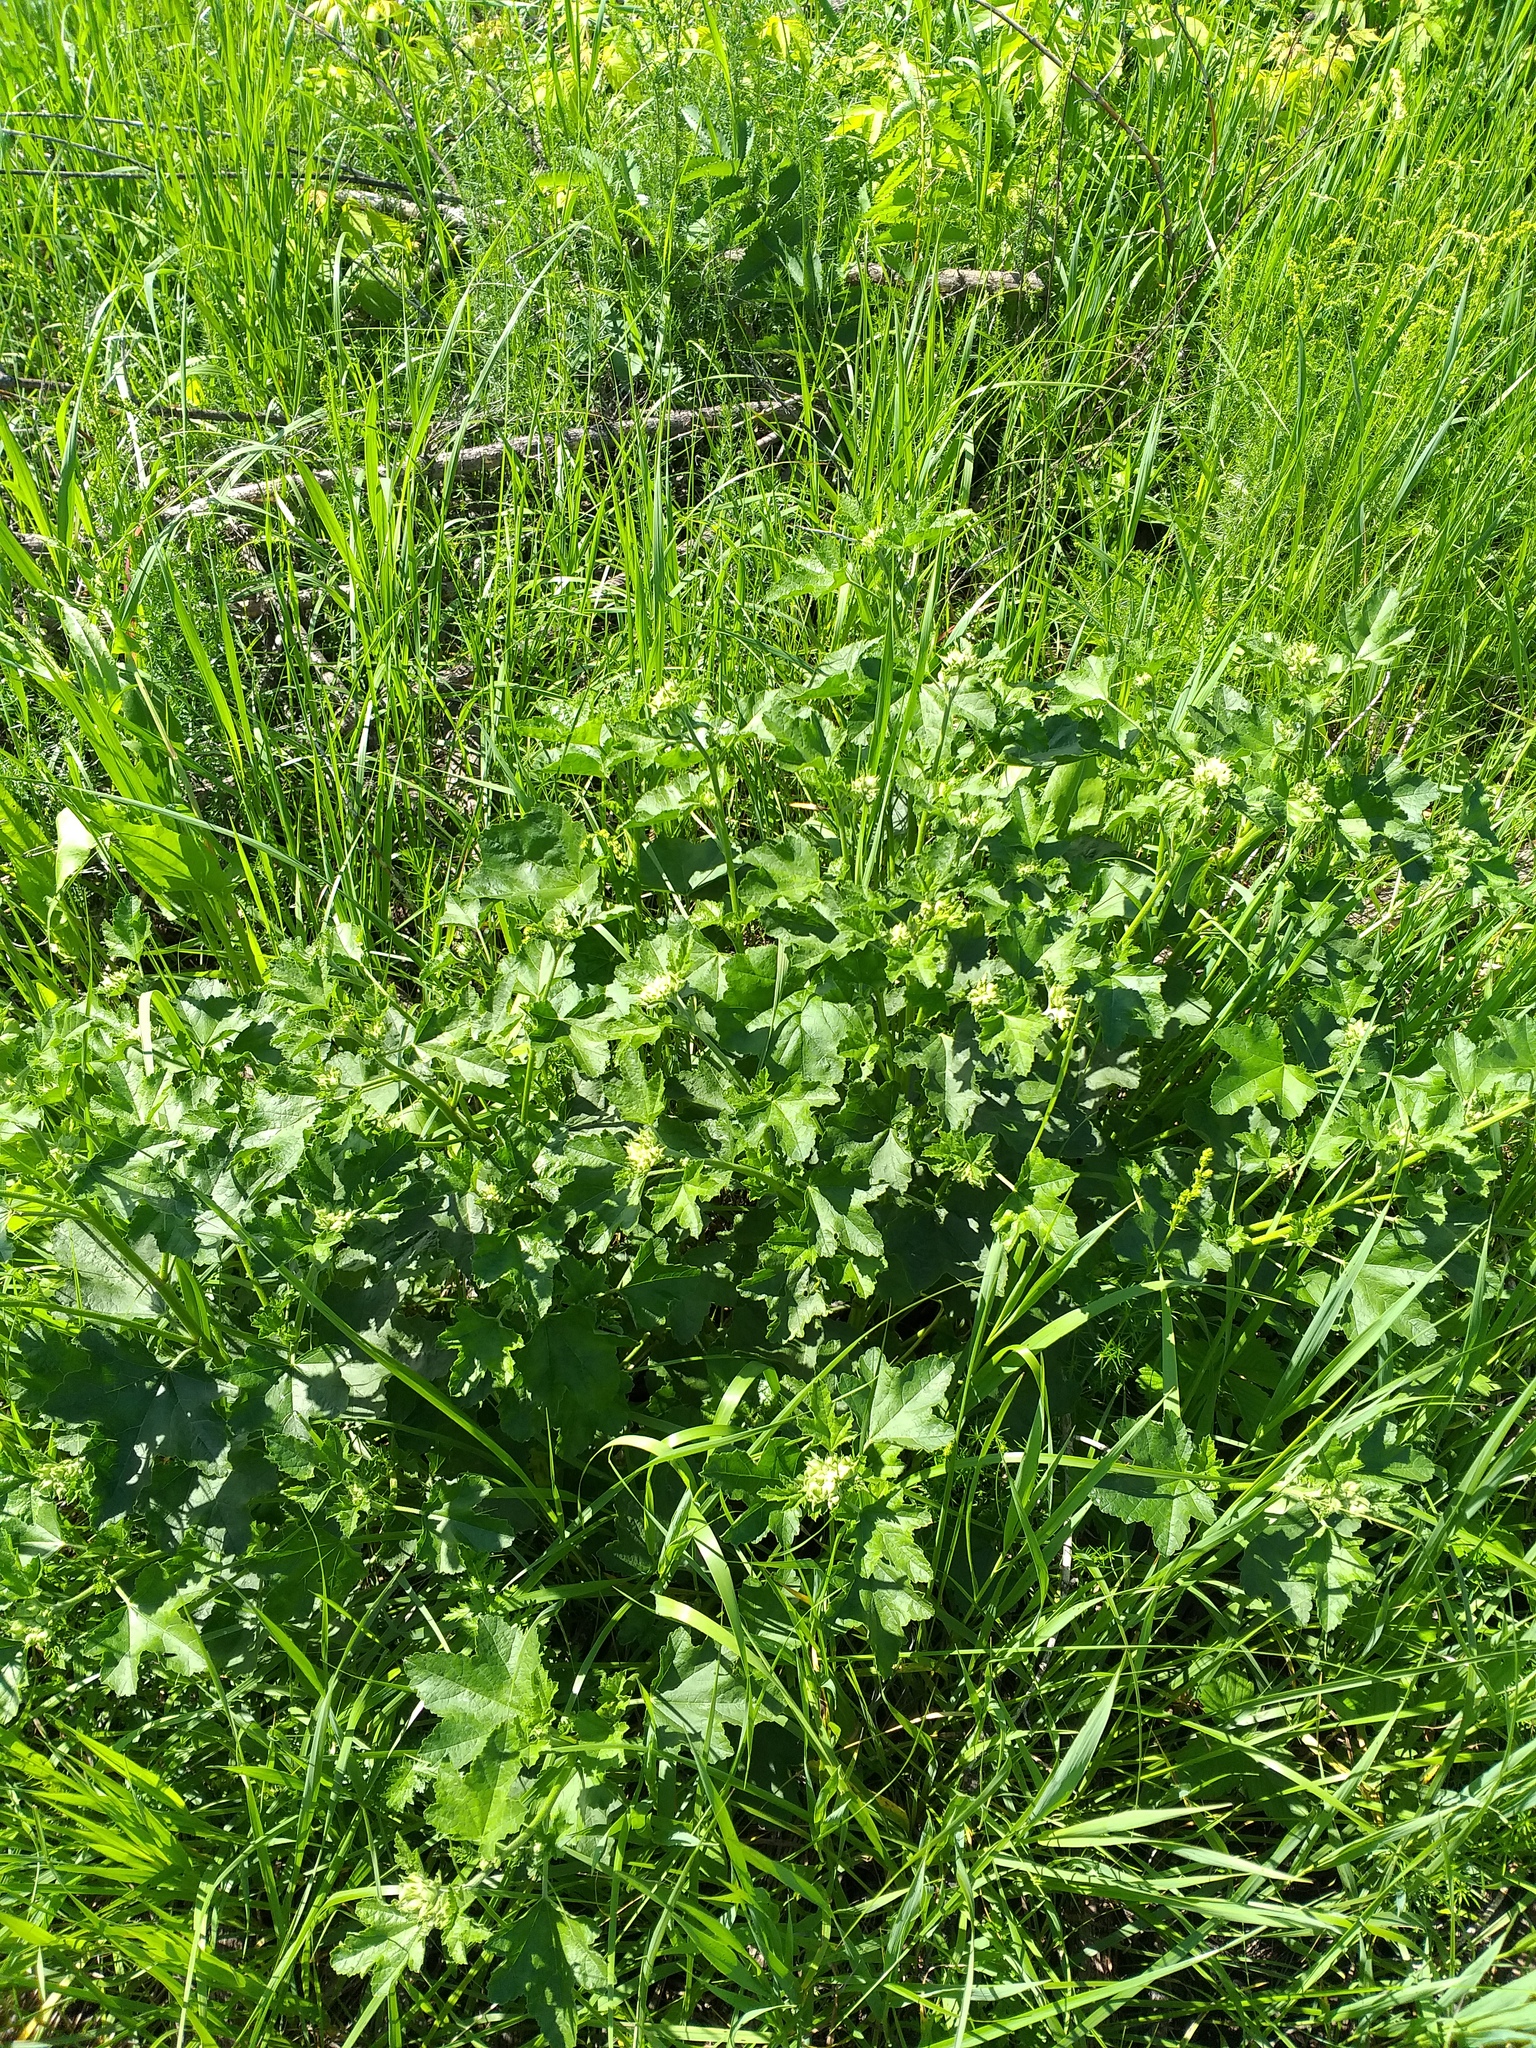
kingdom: Plantae
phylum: Tracheophyta
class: Magnoliopsida
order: Malvales
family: Malvaceae
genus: Malva
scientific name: Malva thuringiaca
